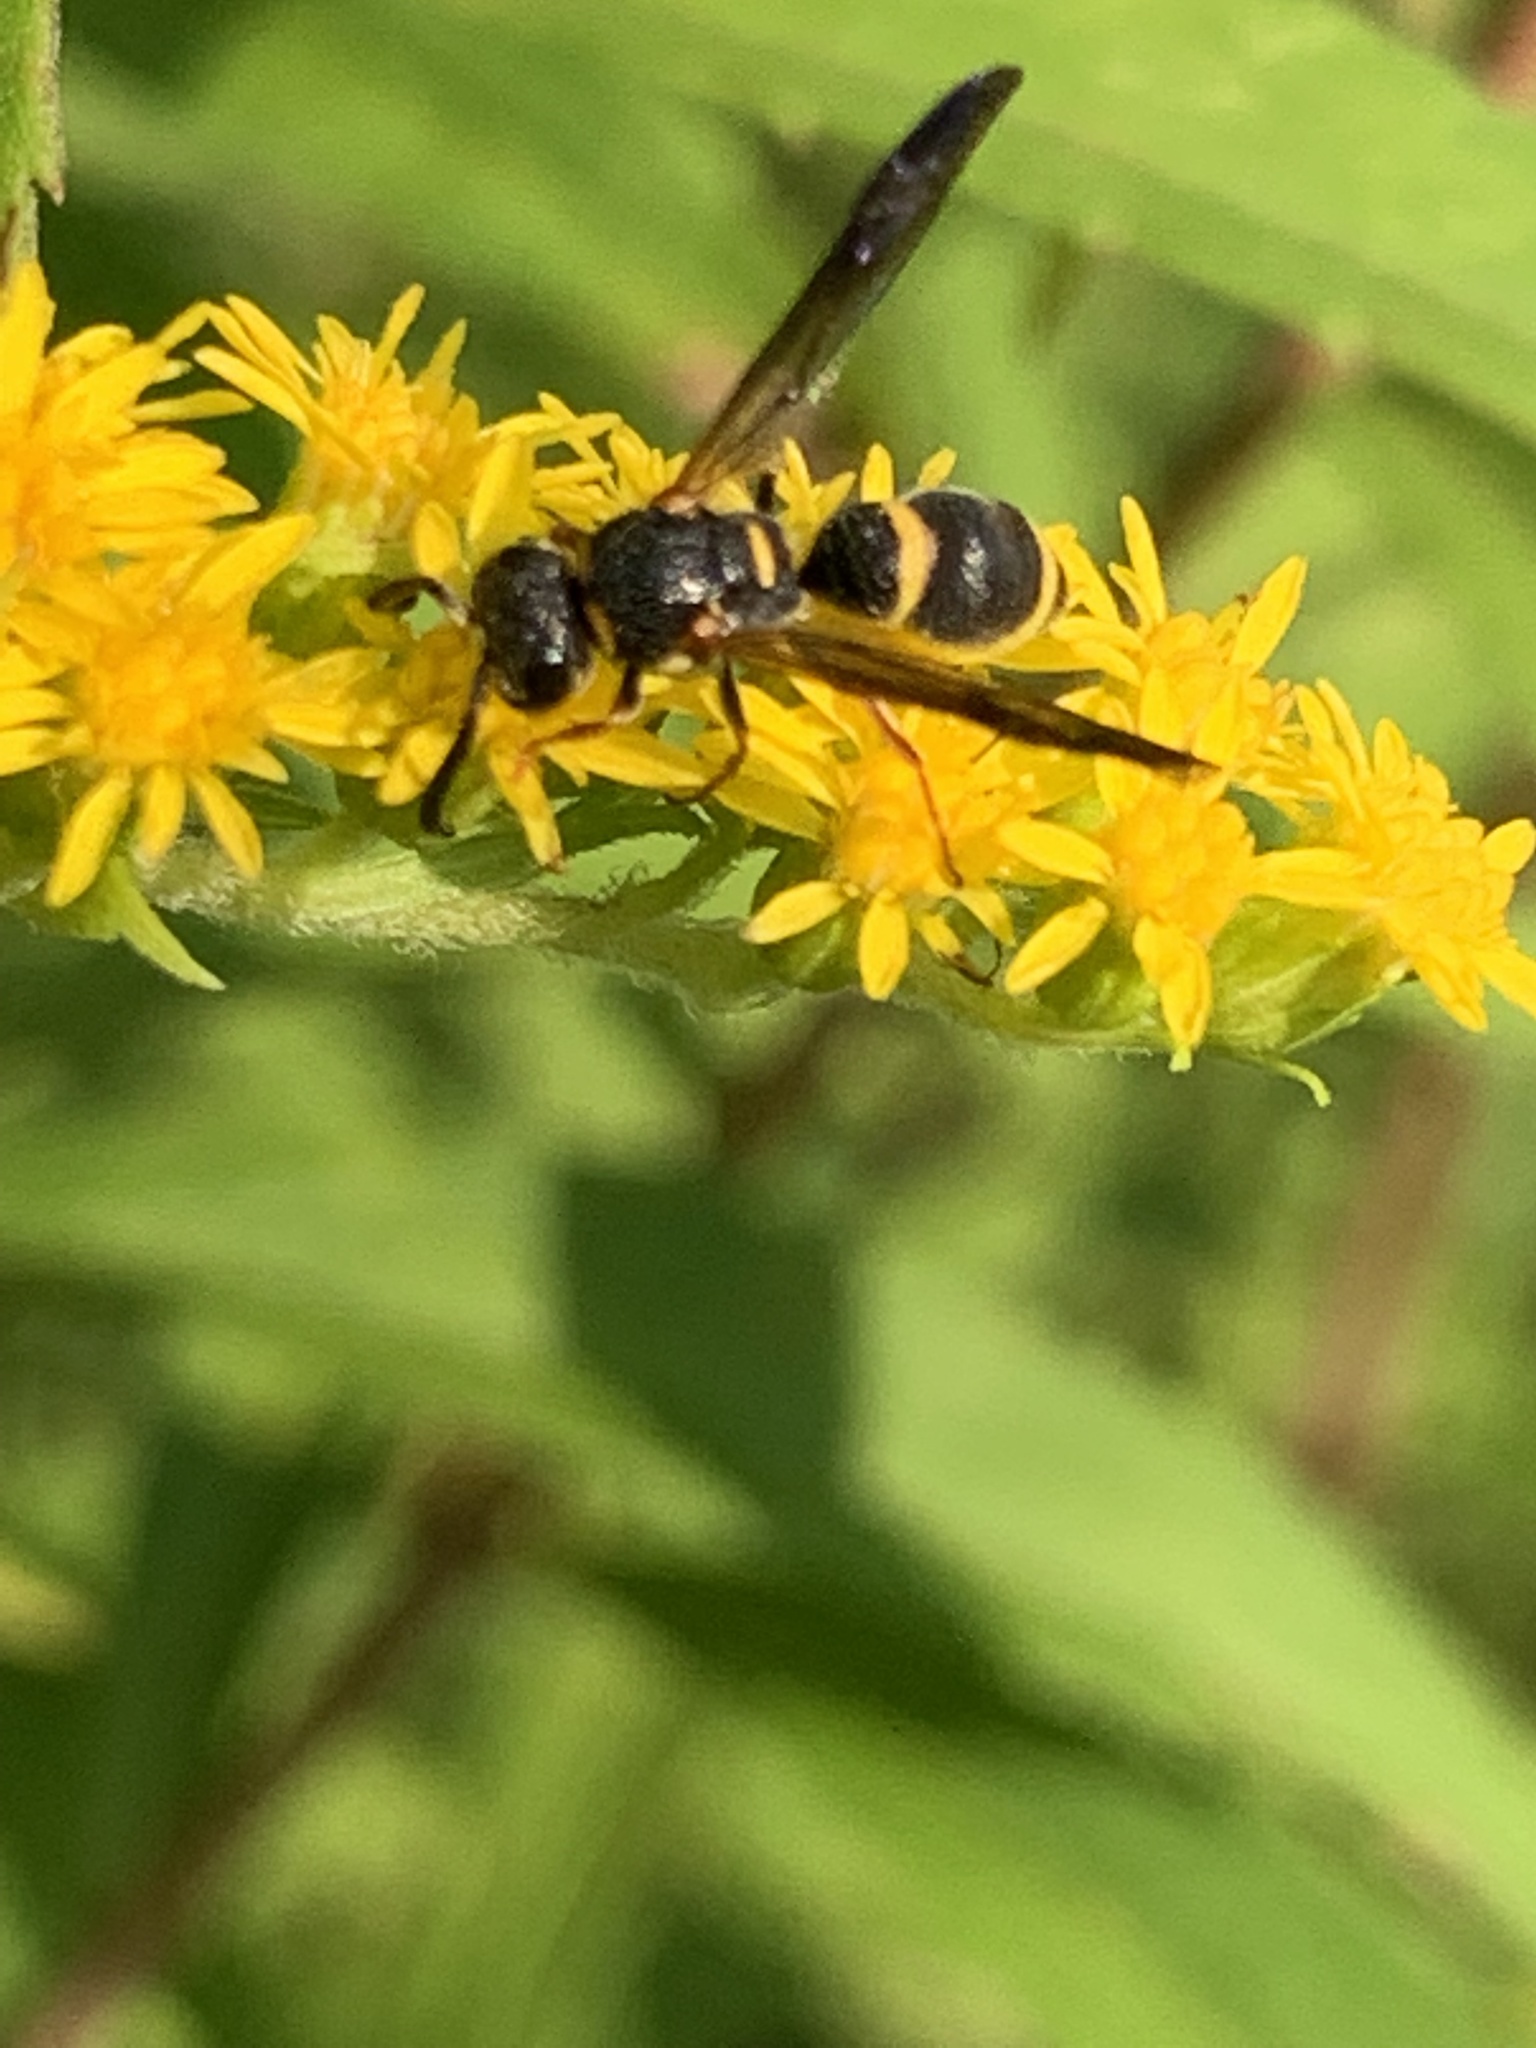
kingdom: Animalia
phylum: Arthropoda
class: Insecta
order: Hymenoptera
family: Eumenidae
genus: Parancistrocerus
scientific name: Parancistrocerus perennis
